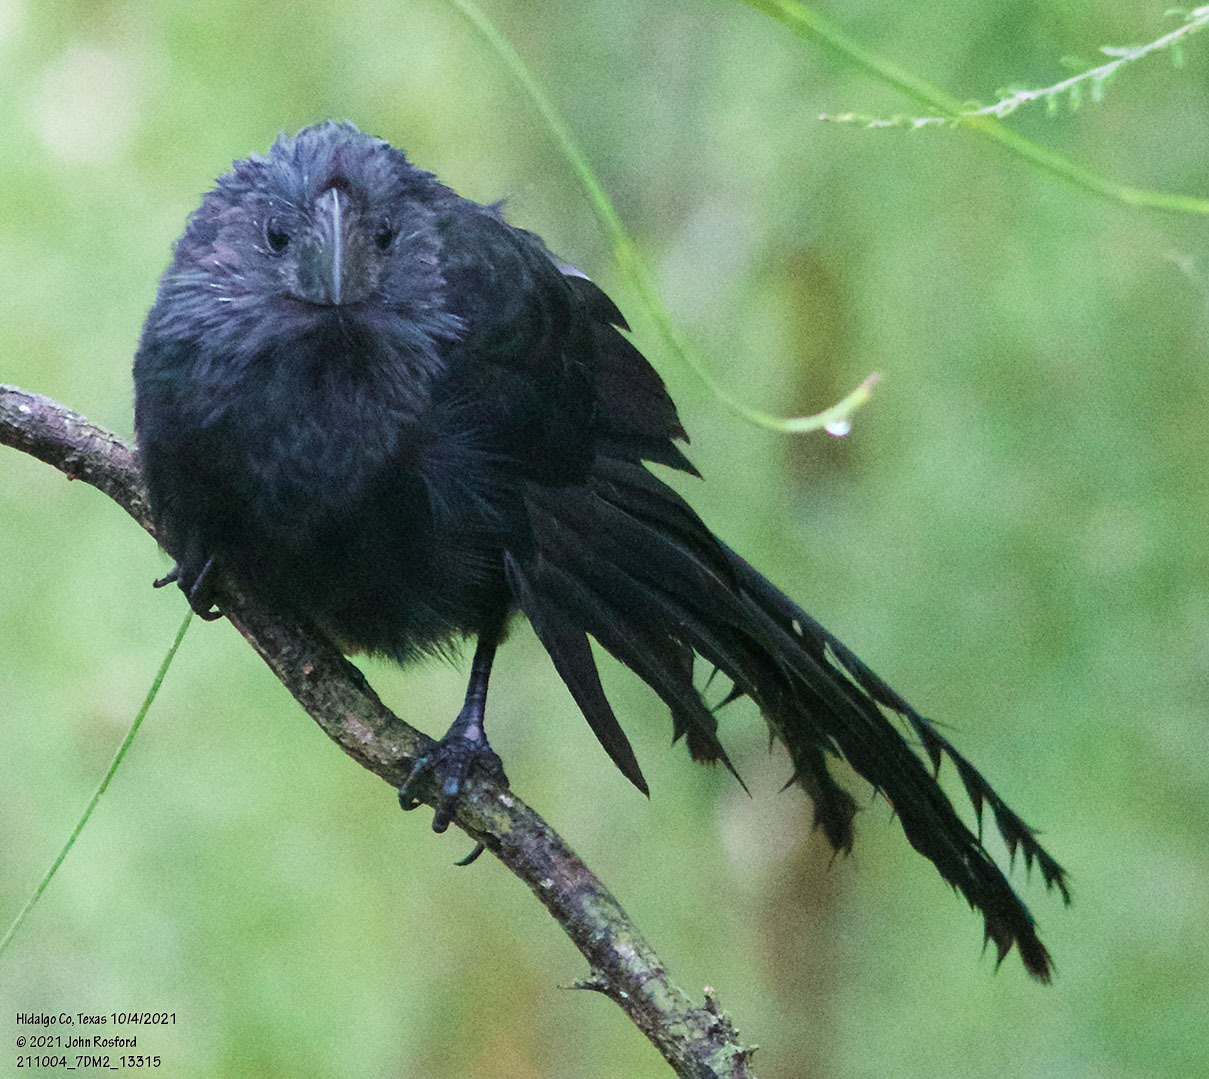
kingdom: Animalia
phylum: Chordata
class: Aves
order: Cuculiformes
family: Cuculidae
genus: Crotophaga
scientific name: Crotophaga sulcirostris
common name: Groove-billed ani
